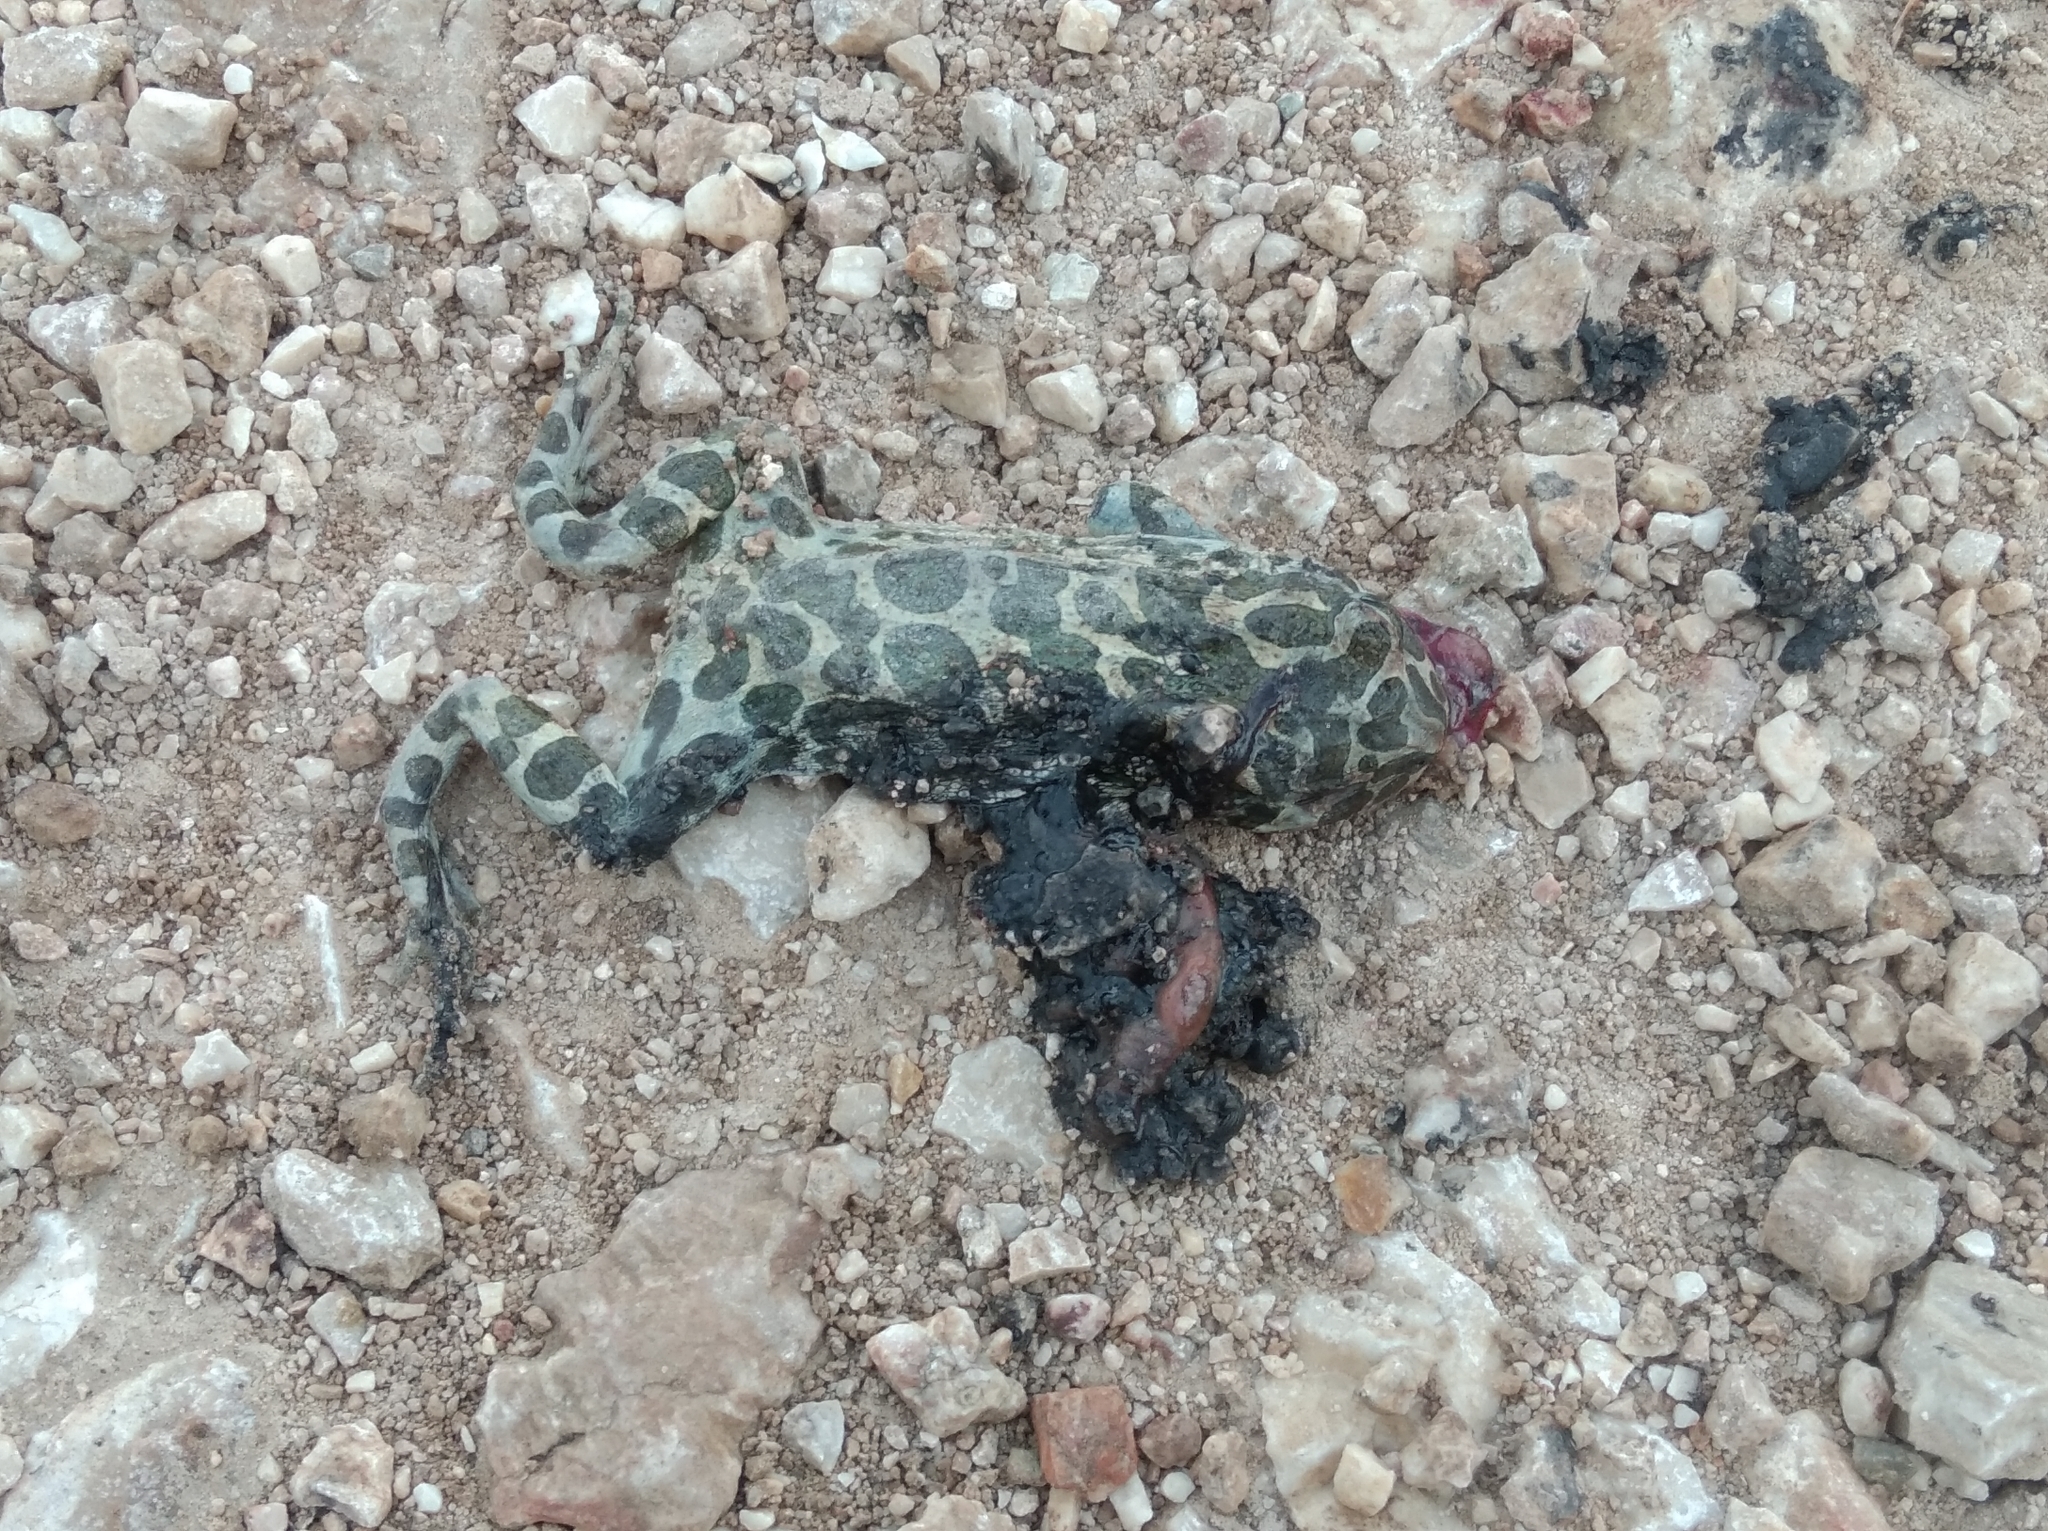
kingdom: Animalia
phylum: Chordata
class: Amphibia
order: Anura
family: Bufonidae
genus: Bufotes
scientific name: Bufotes viridis
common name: European green toad
